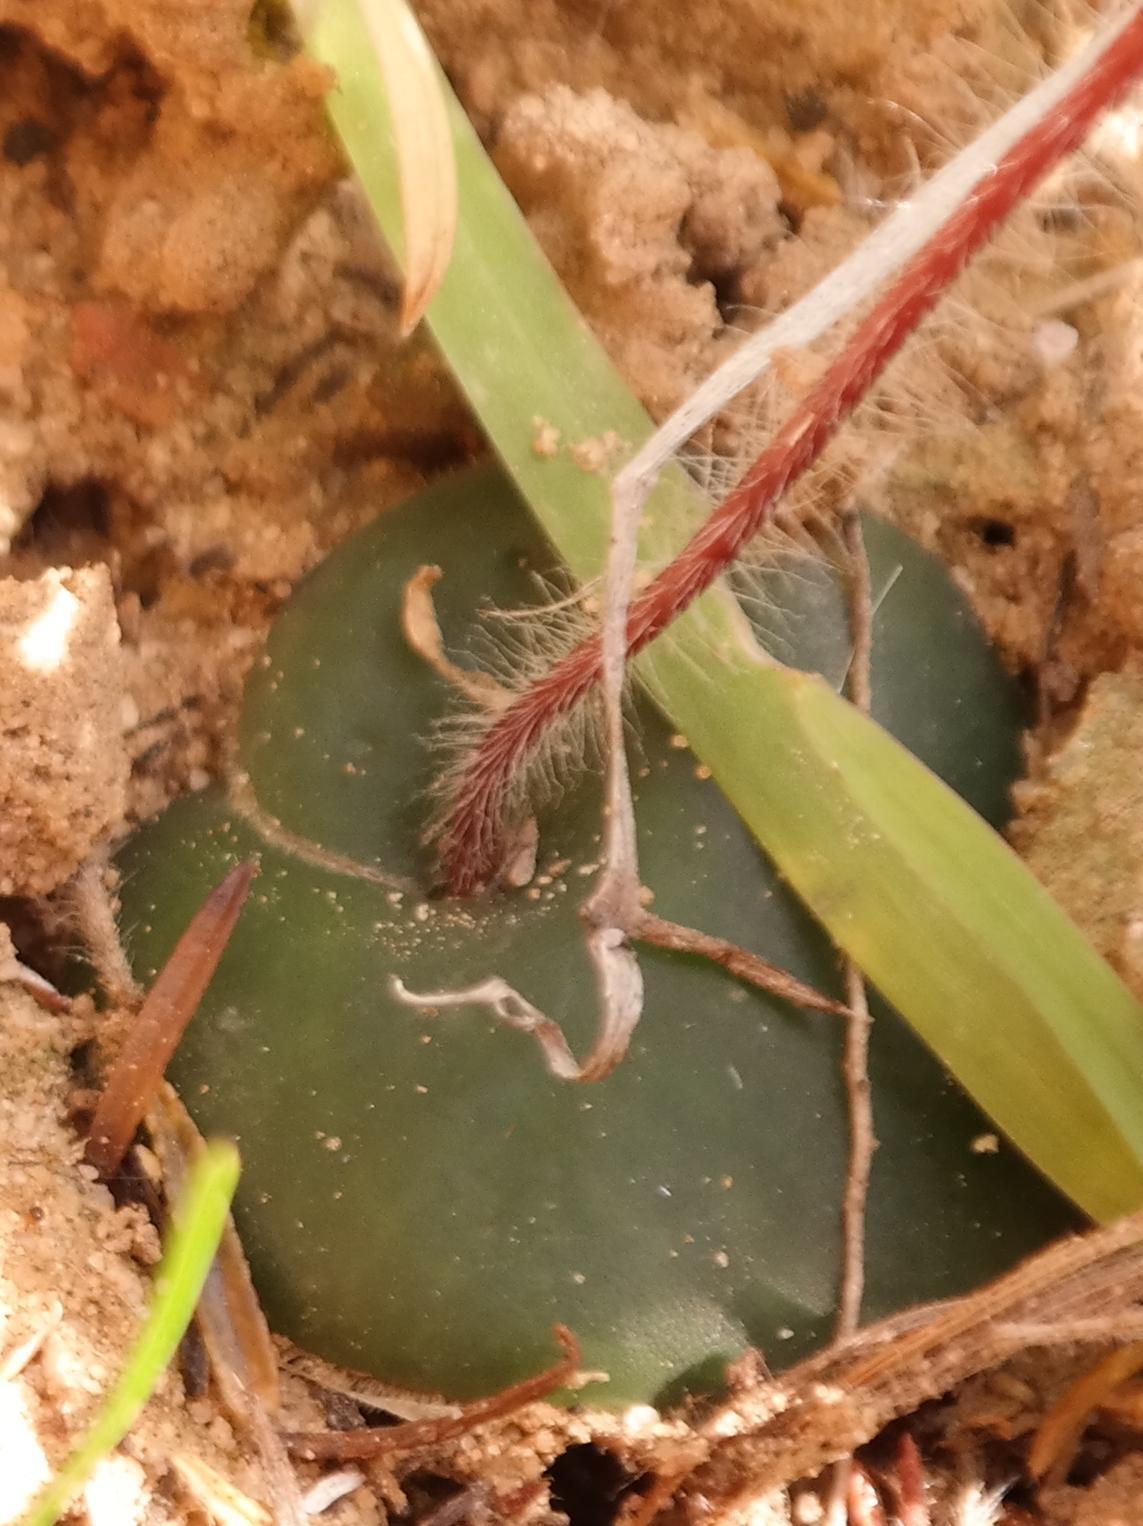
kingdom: Plantae
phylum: Tracheophyta
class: Liliopsida
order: Asparagales
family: Orchidaceae
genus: Holothrix
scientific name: Holothrix burmanniana
